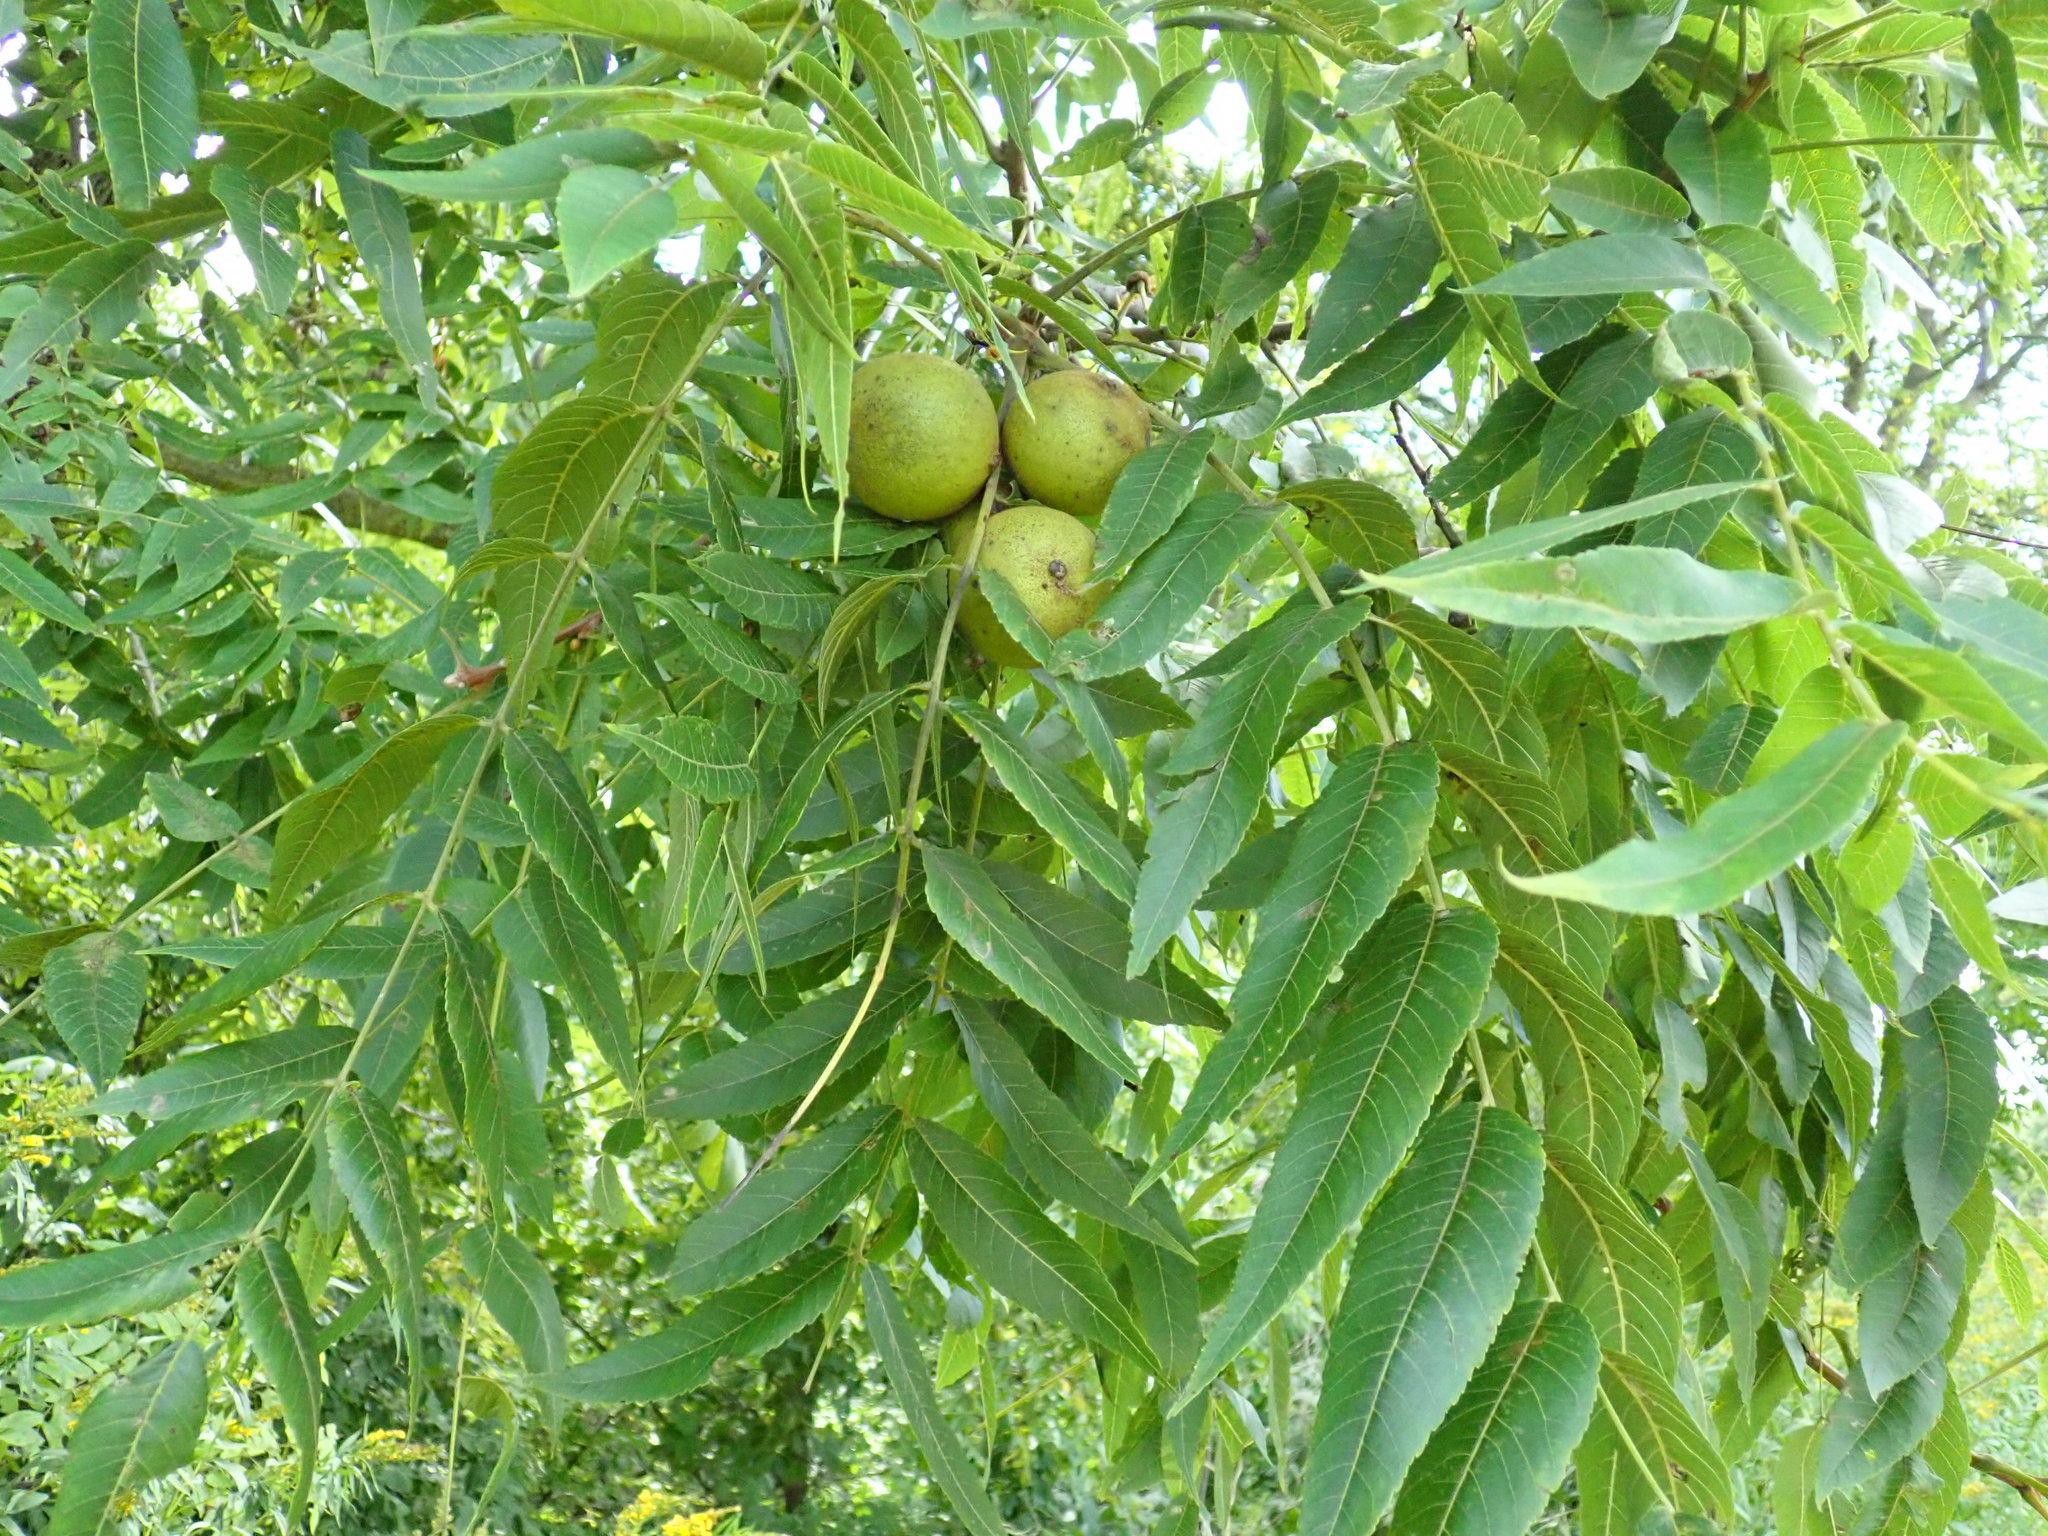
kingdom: Plantae
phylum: Tracheophyta
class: Magnoliopsida
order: Fagales
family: Juglandaceae
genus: Juglans
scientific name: Juglans nigra
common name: Black walnut
